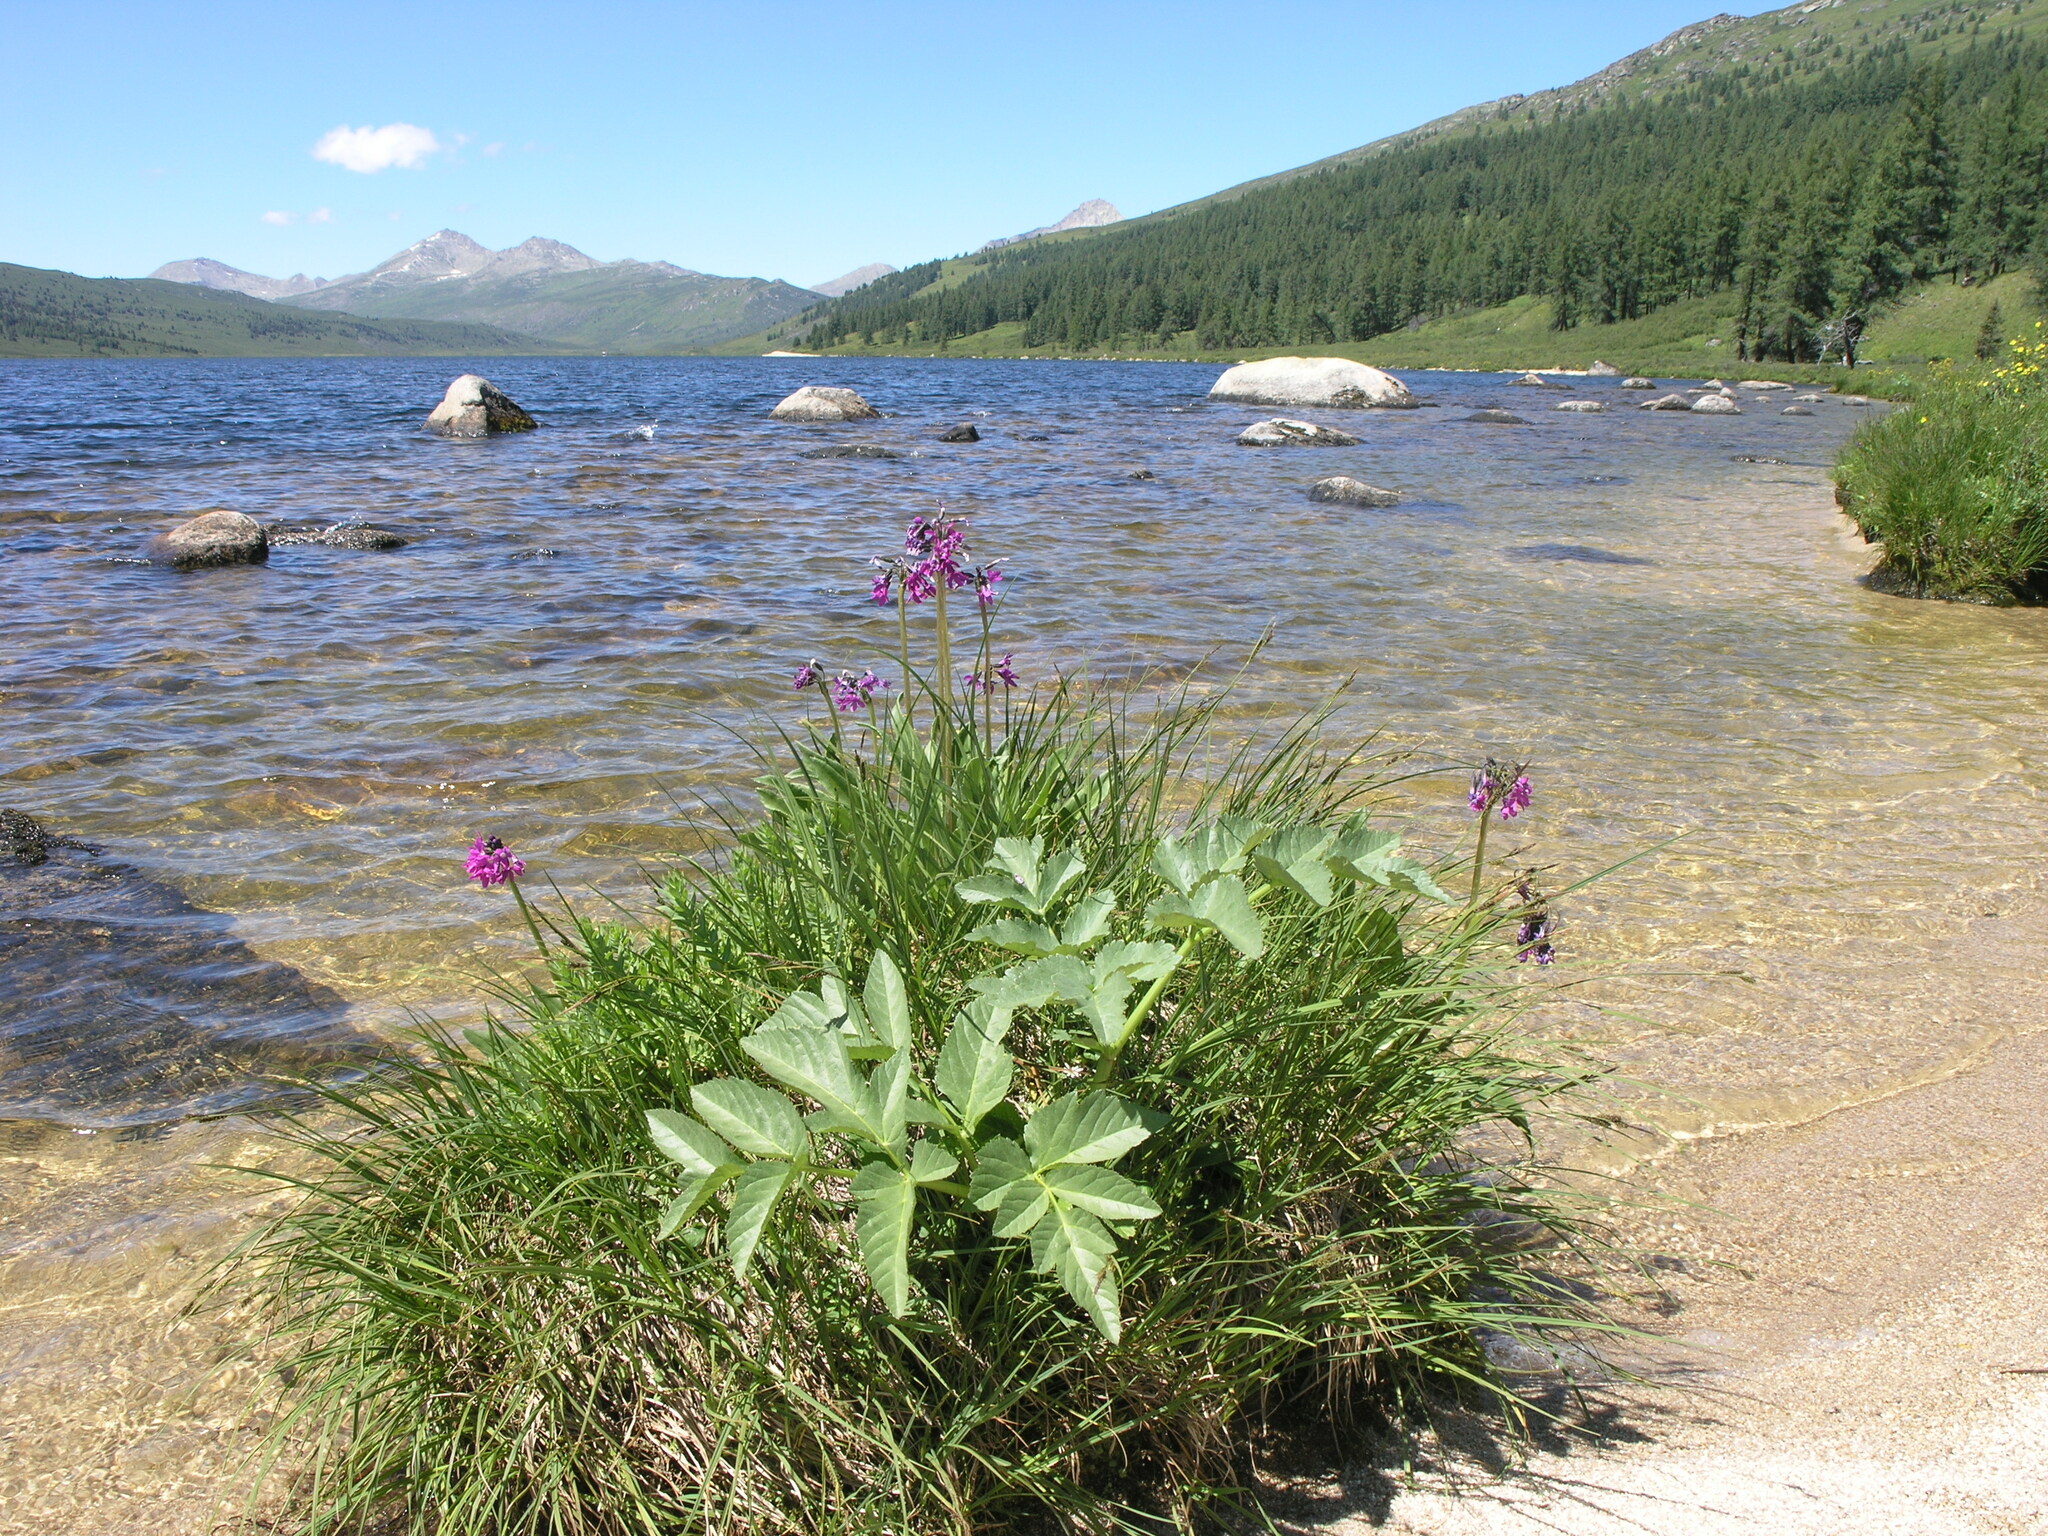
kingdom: Plantae
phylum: Tracheophyta
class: Magnoliopsida
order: Apiales
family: Apiaceae
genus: Angelica
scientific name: Angelica decurrens
